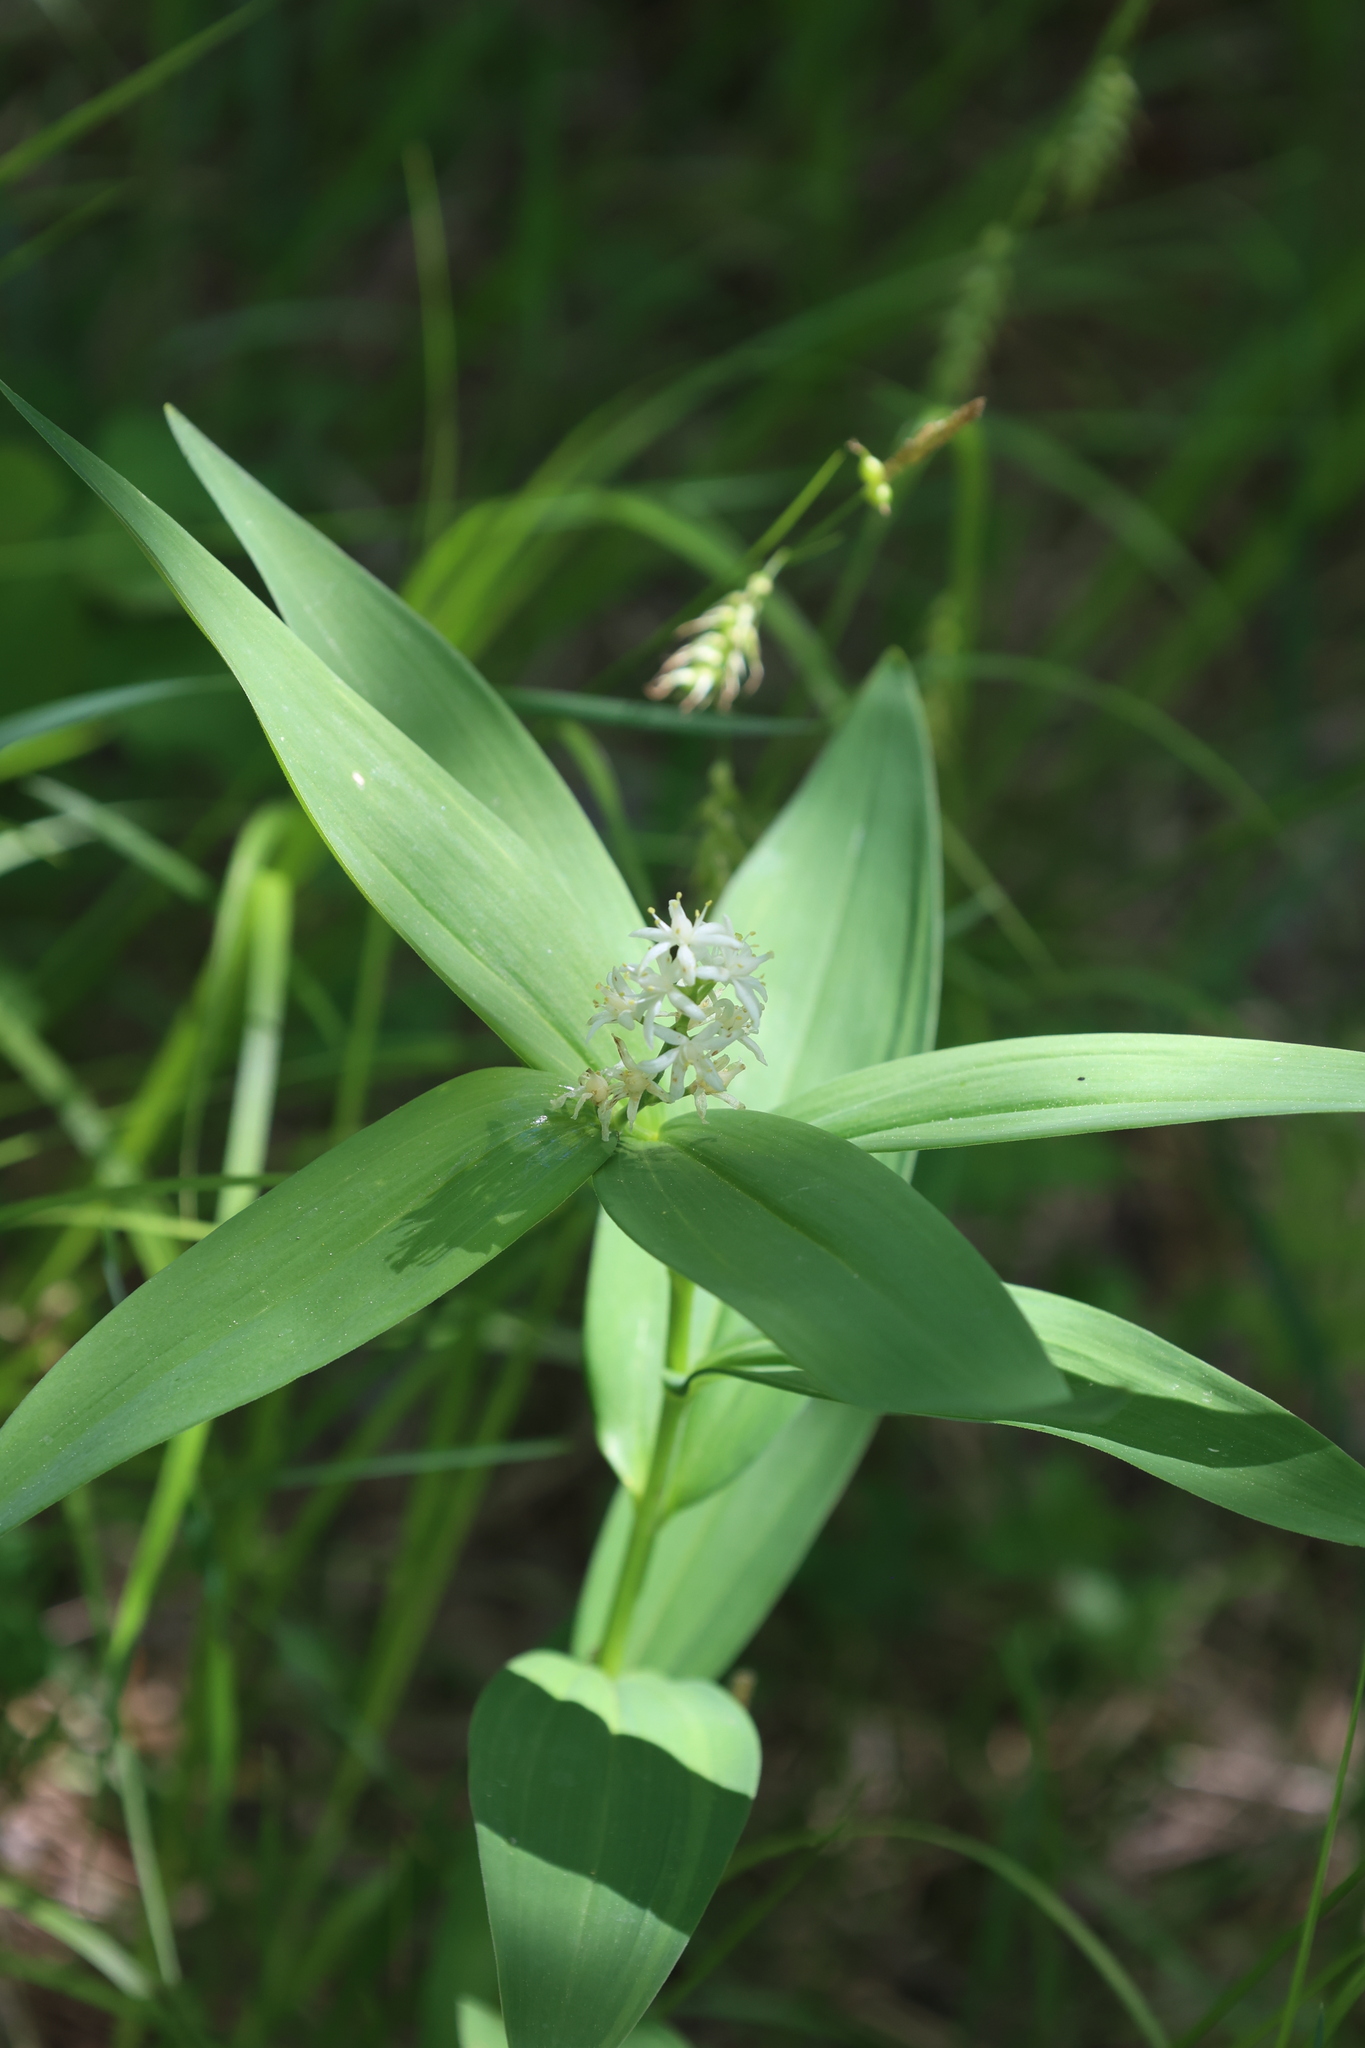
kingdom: Plantae
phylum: Tracheophyta
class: Liliopsida
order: Asparagales
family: Asparagaceae
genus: Maianthemum
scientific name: Maianthemum stellatum
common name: Little false solomon's seal
